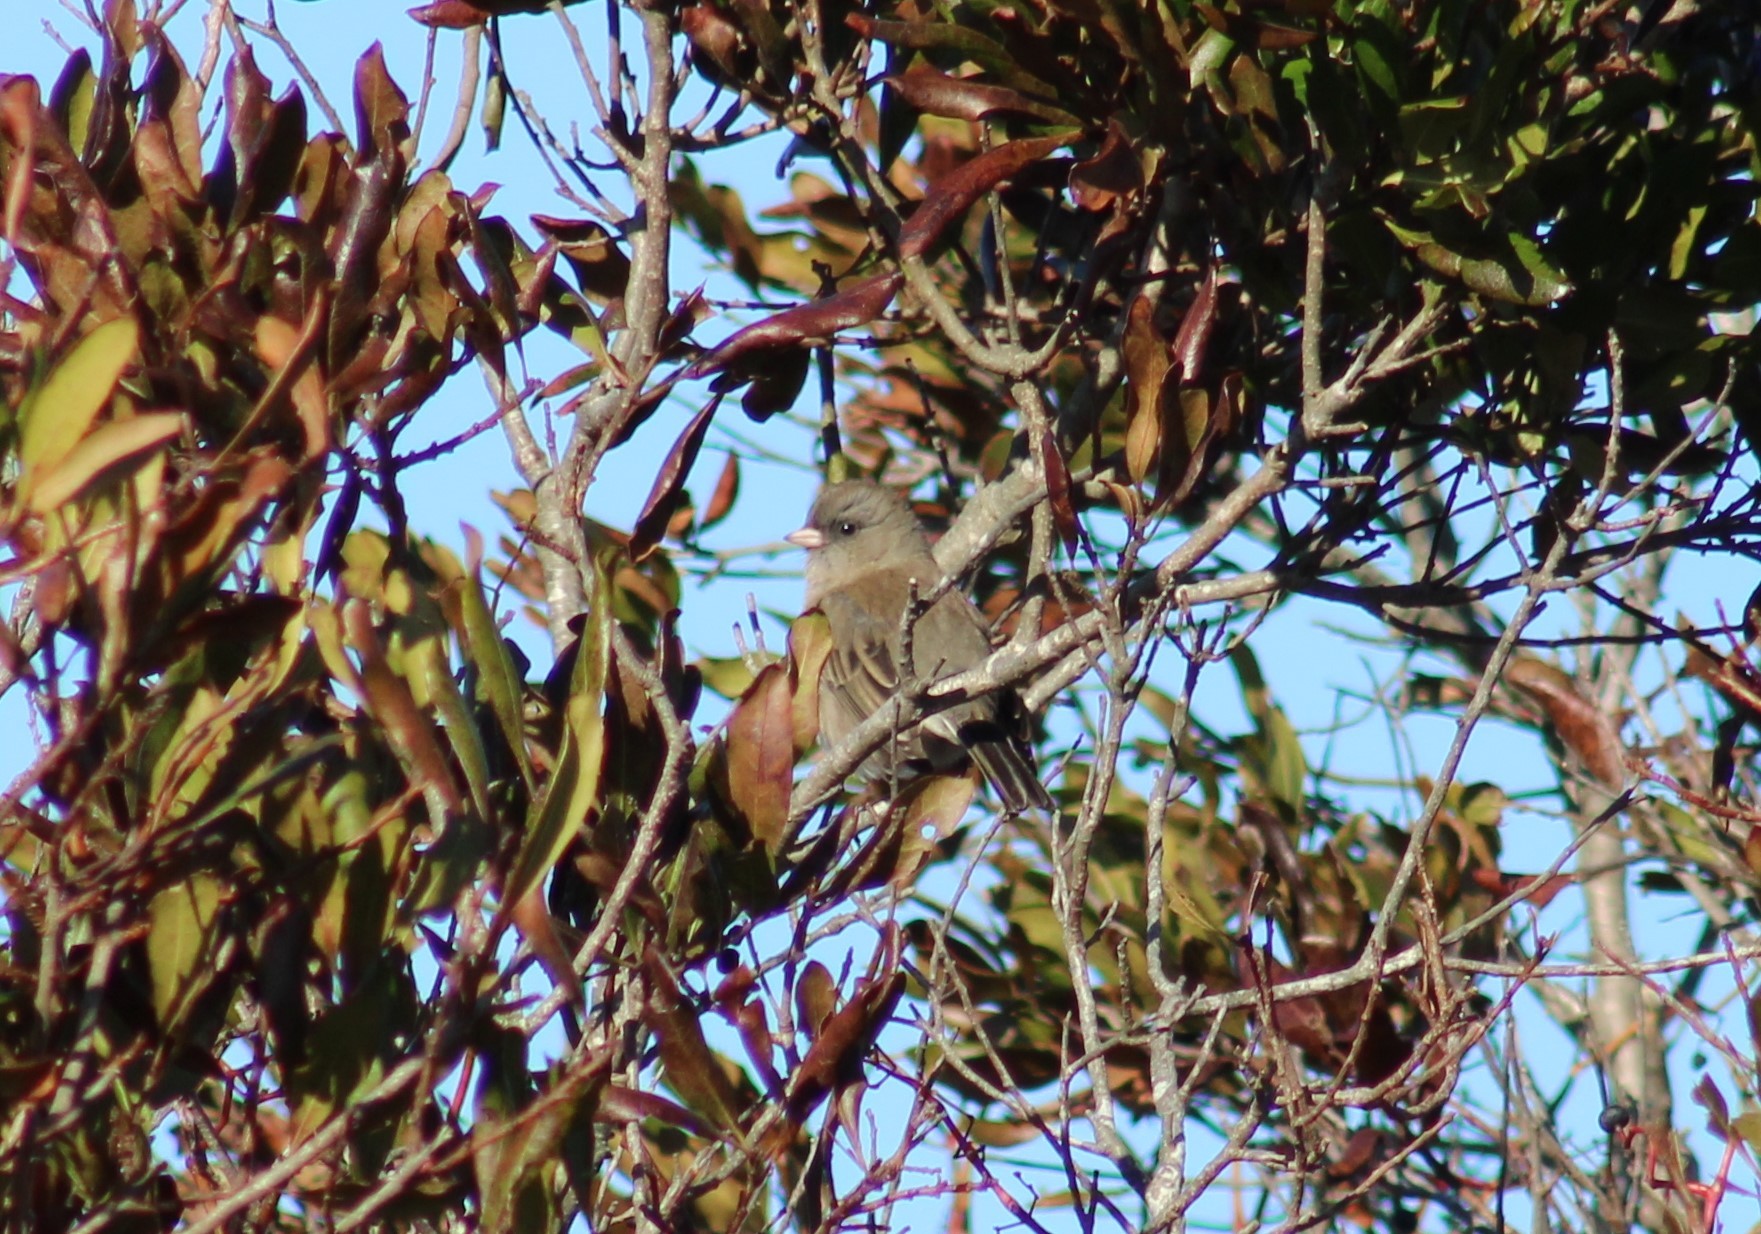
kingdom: Animalia
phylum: Chordata
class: Aves
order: Passeriformes
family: Passerellidae
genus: Junco
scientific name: Junco hyemalis
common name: Dark-eyed junco
